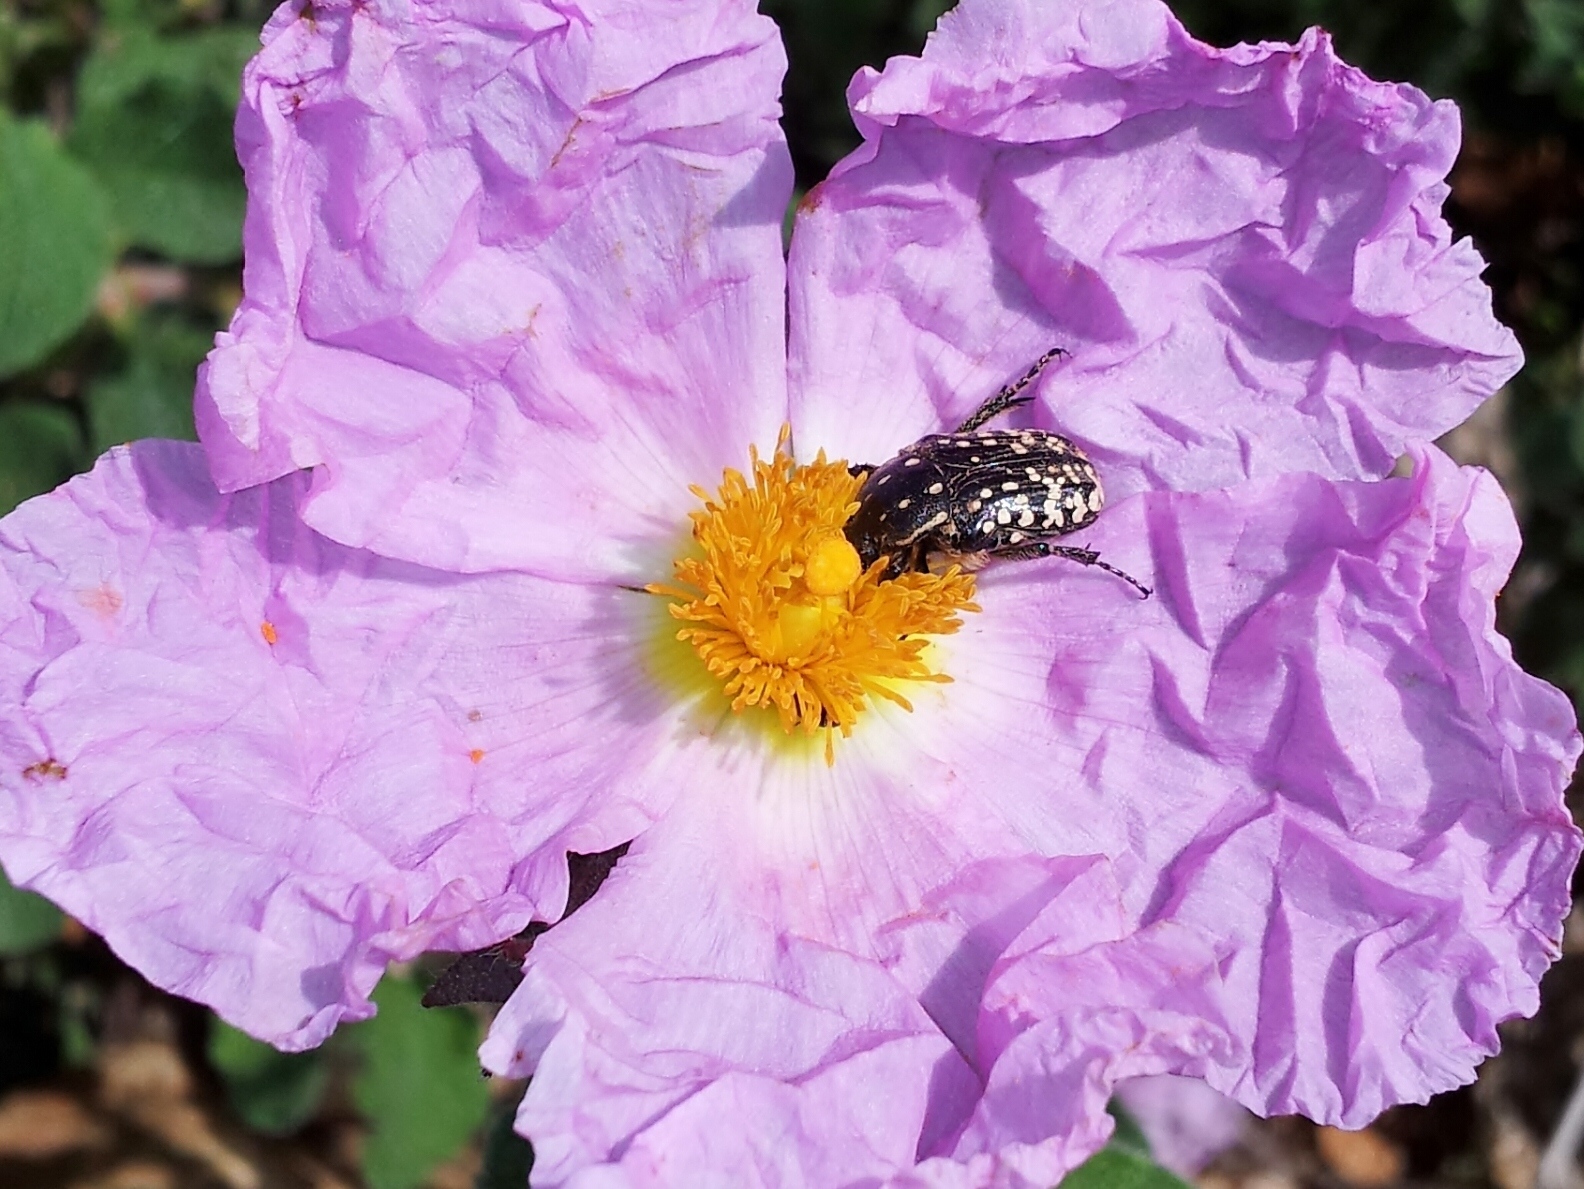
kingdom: Plantae
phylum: Tracheophyta
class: Magnoliopsida
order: Malvales
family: Cistaceae
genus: Cistus
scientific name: Cistus creticus
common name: Cretan rockrose
